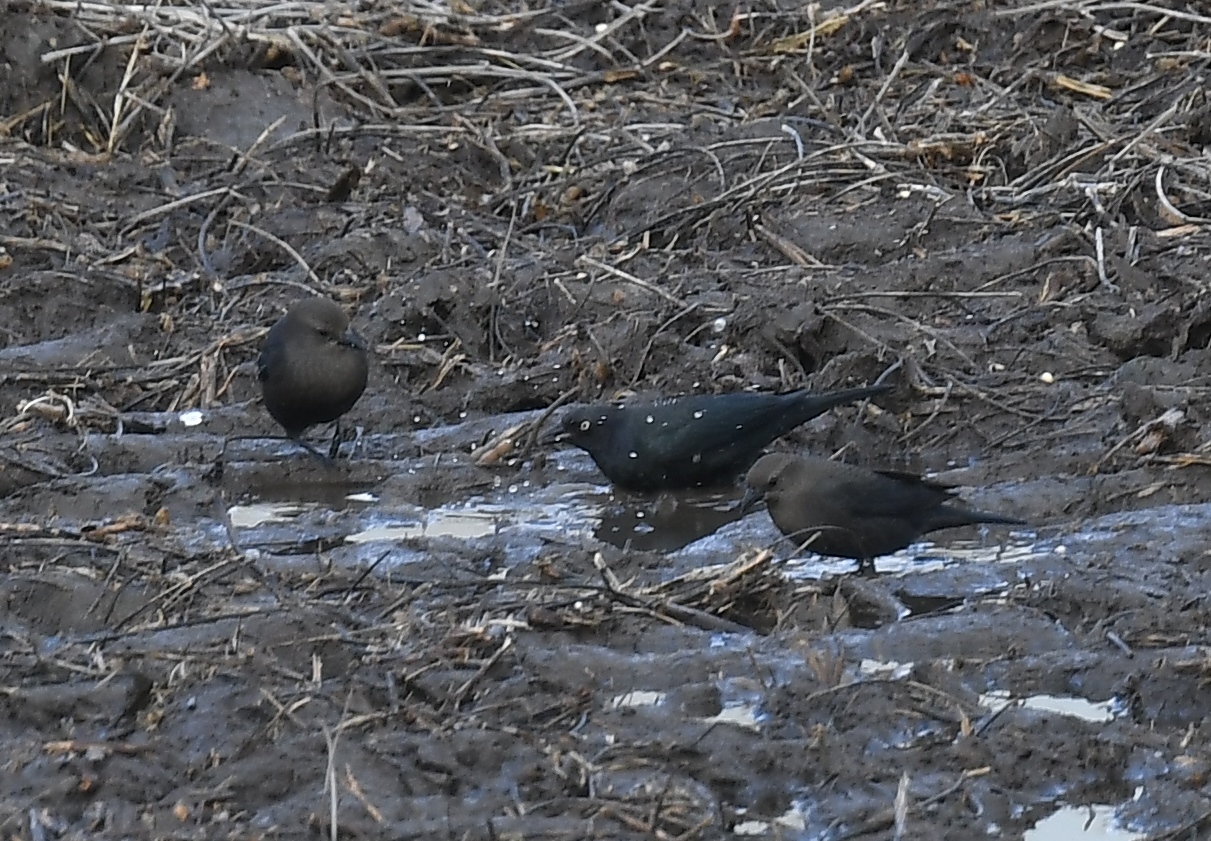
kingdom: Animalia
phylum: Chordata
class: Aves
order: Passeriformes
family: Icteridae
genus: Euphagus
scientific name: Euphagus cyanocephalus
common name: Brewer's blackbird
